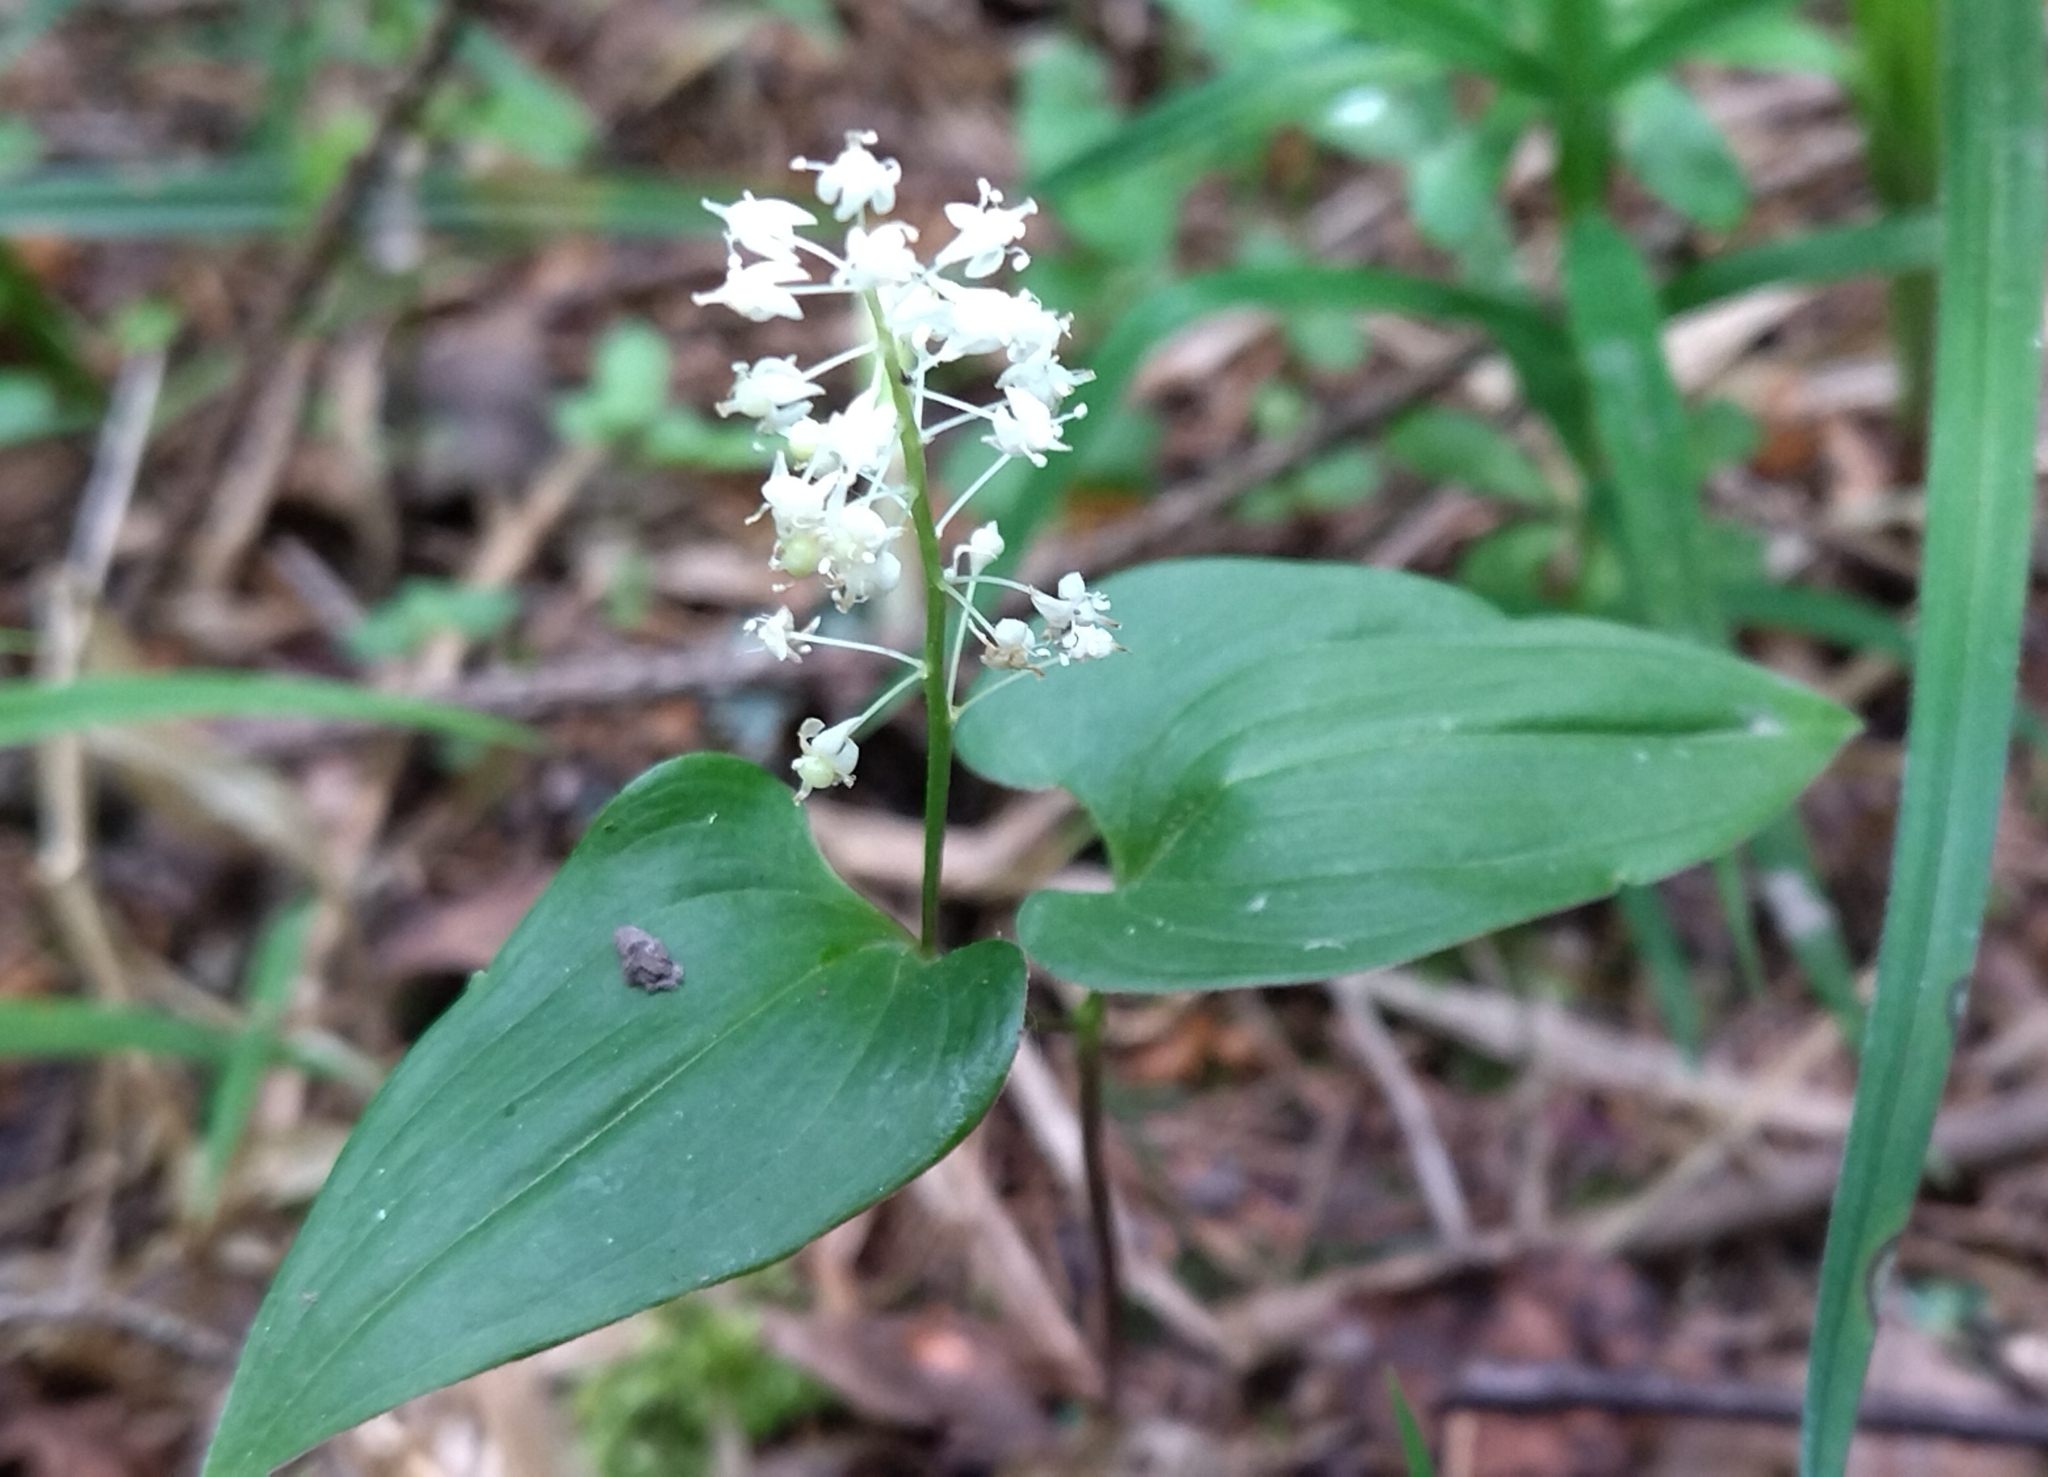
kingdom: Plantae
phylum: Tracheophyta
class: Liliopsida
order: Asparagales
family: Asparagaceae
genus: Maianthemum
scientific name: Maianthemum bifolium
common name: May lily
